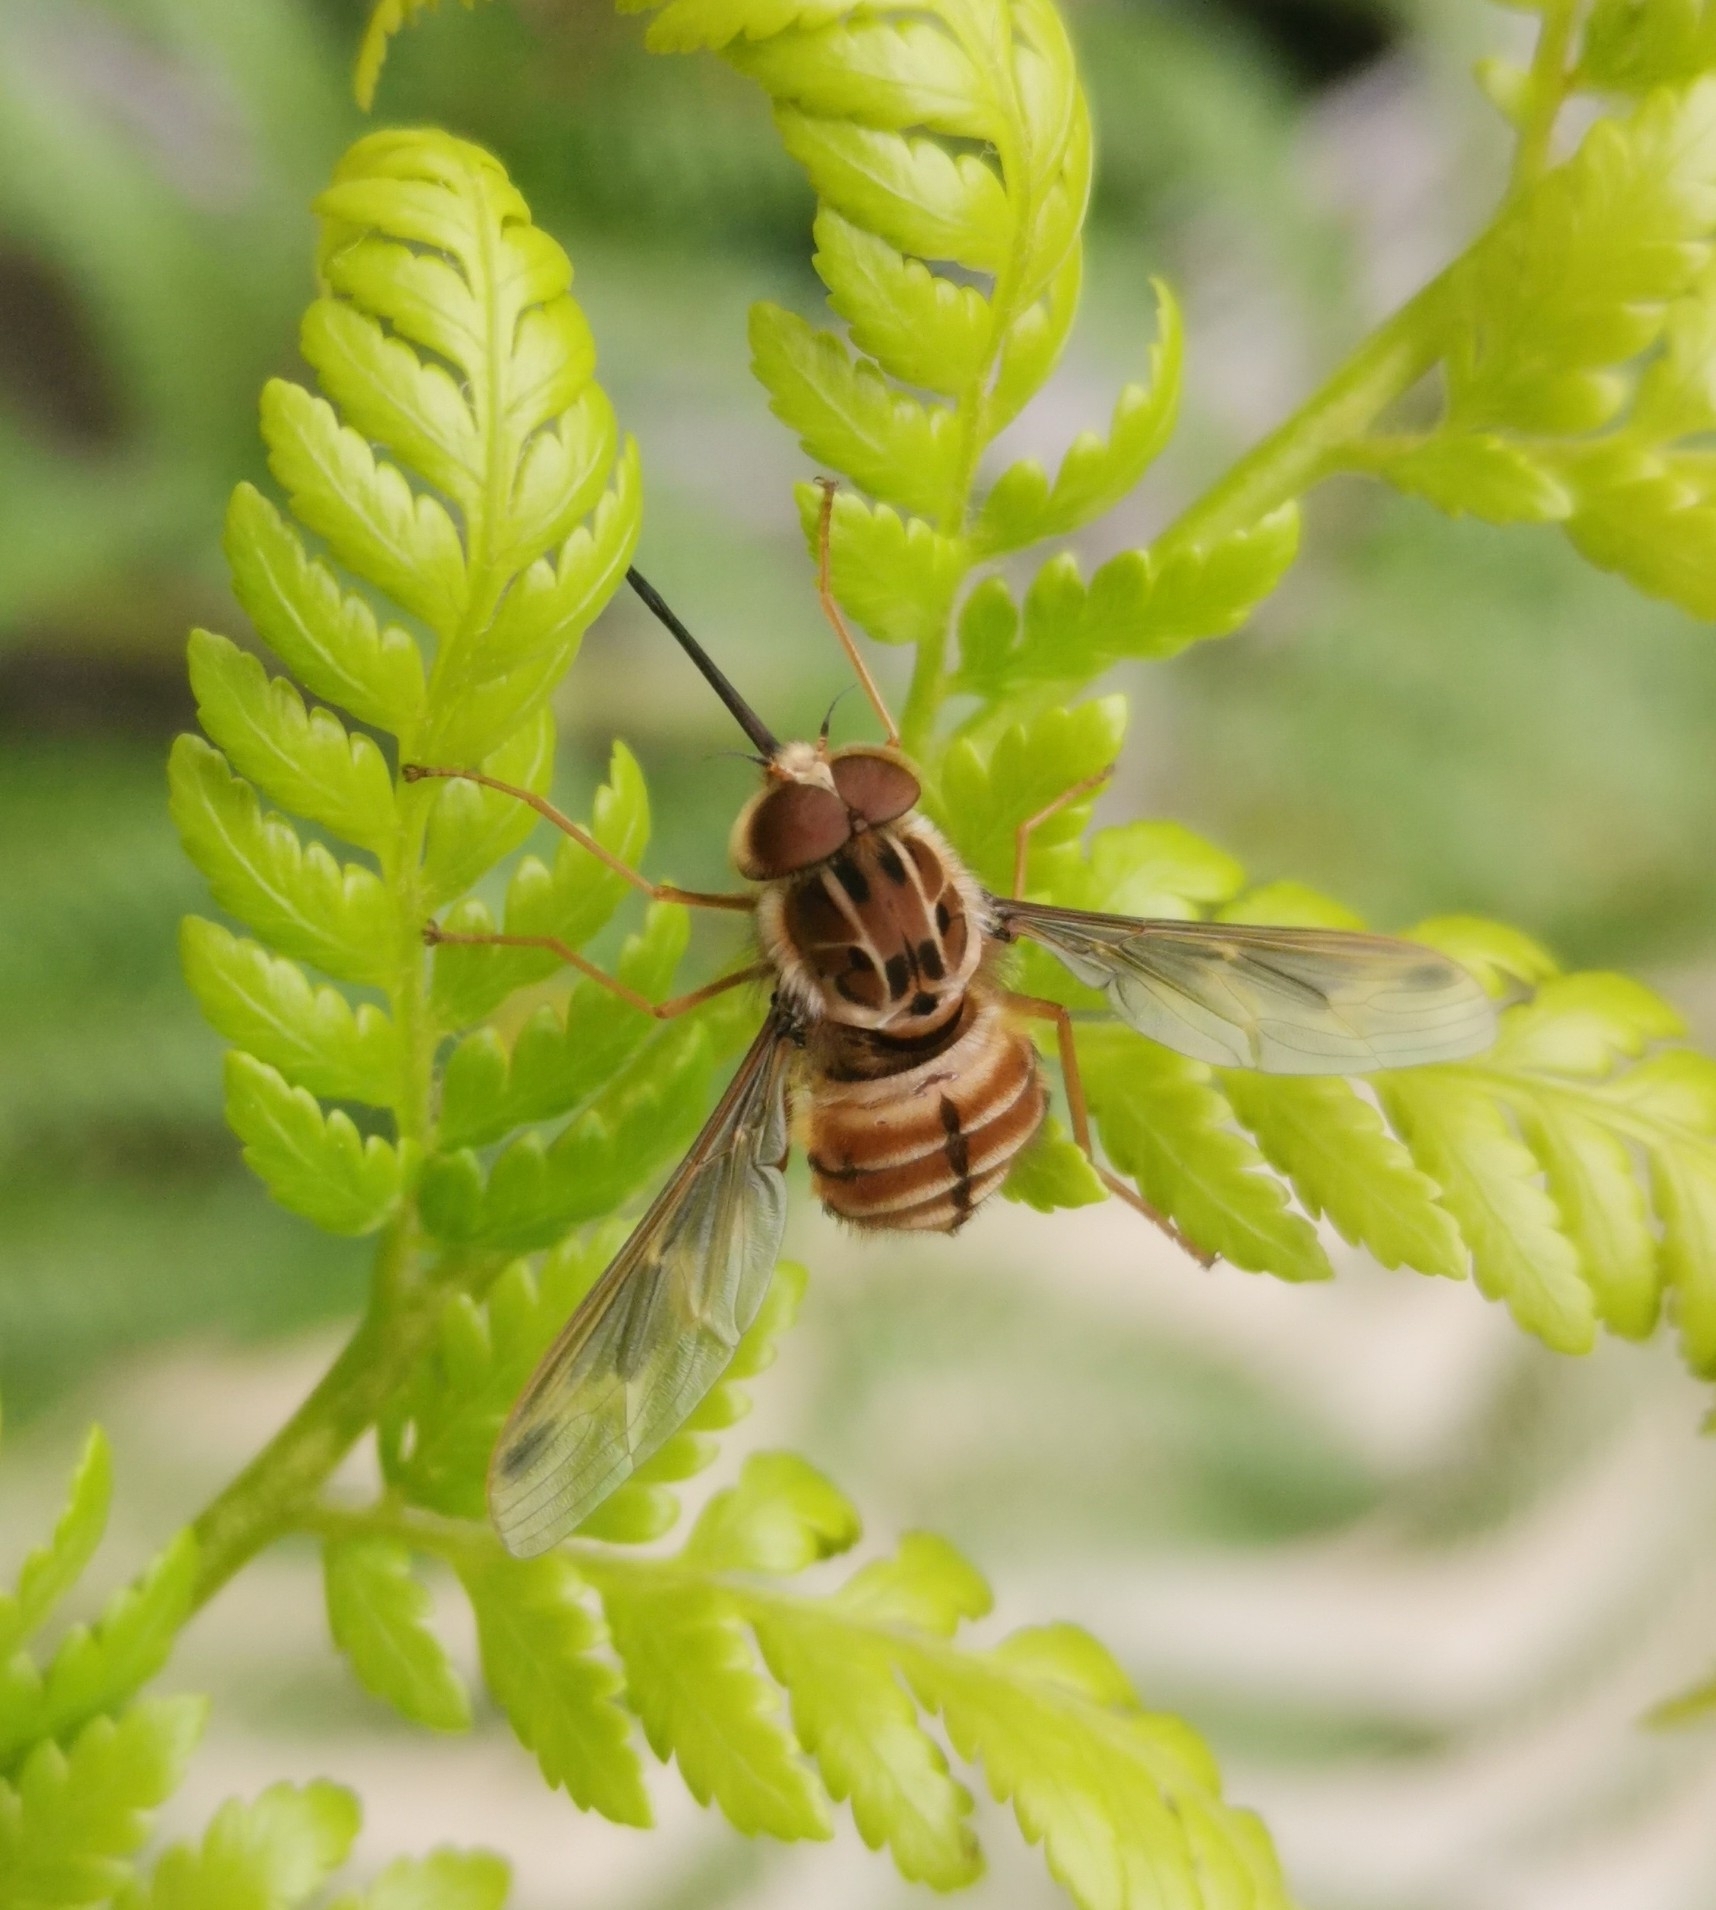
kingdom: Animalia
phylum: Arthropoda
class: Insecta
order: Diptera
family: Nemestrinidae
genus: Trichophthalma
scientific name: Trichophthalma nubipennis
